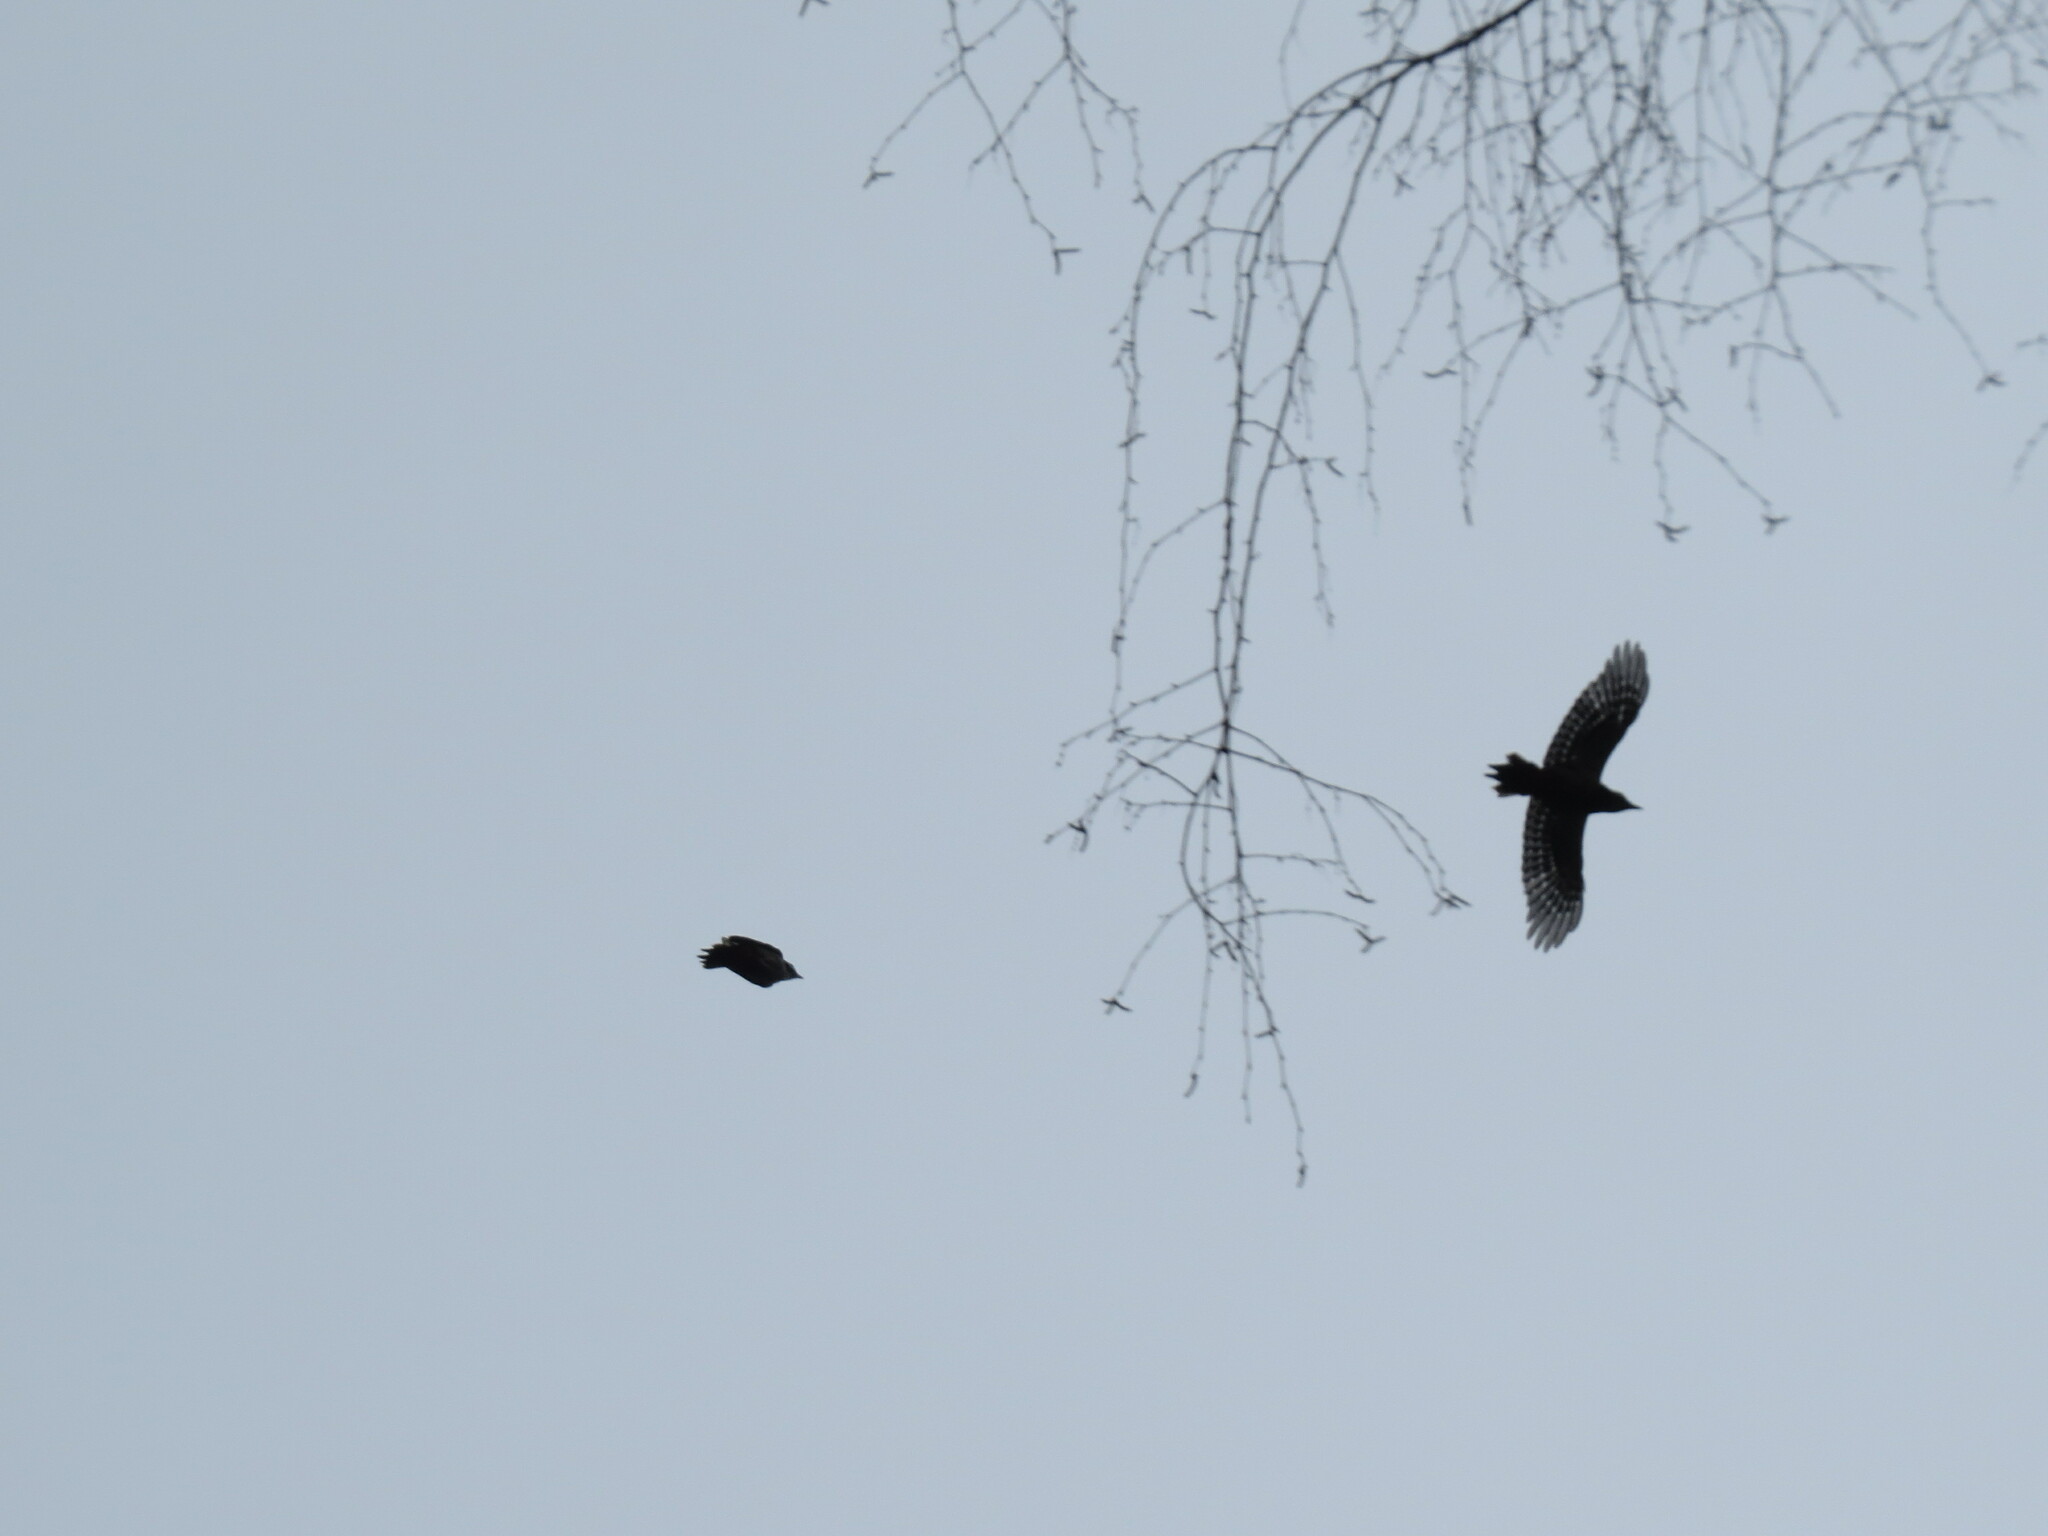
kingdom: Animalia
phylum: Chordata
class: Aves
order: Piciformes
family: Picidae
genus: Dendrocopos
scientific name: Dendrocopos major
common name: Great spotted woodpecker
